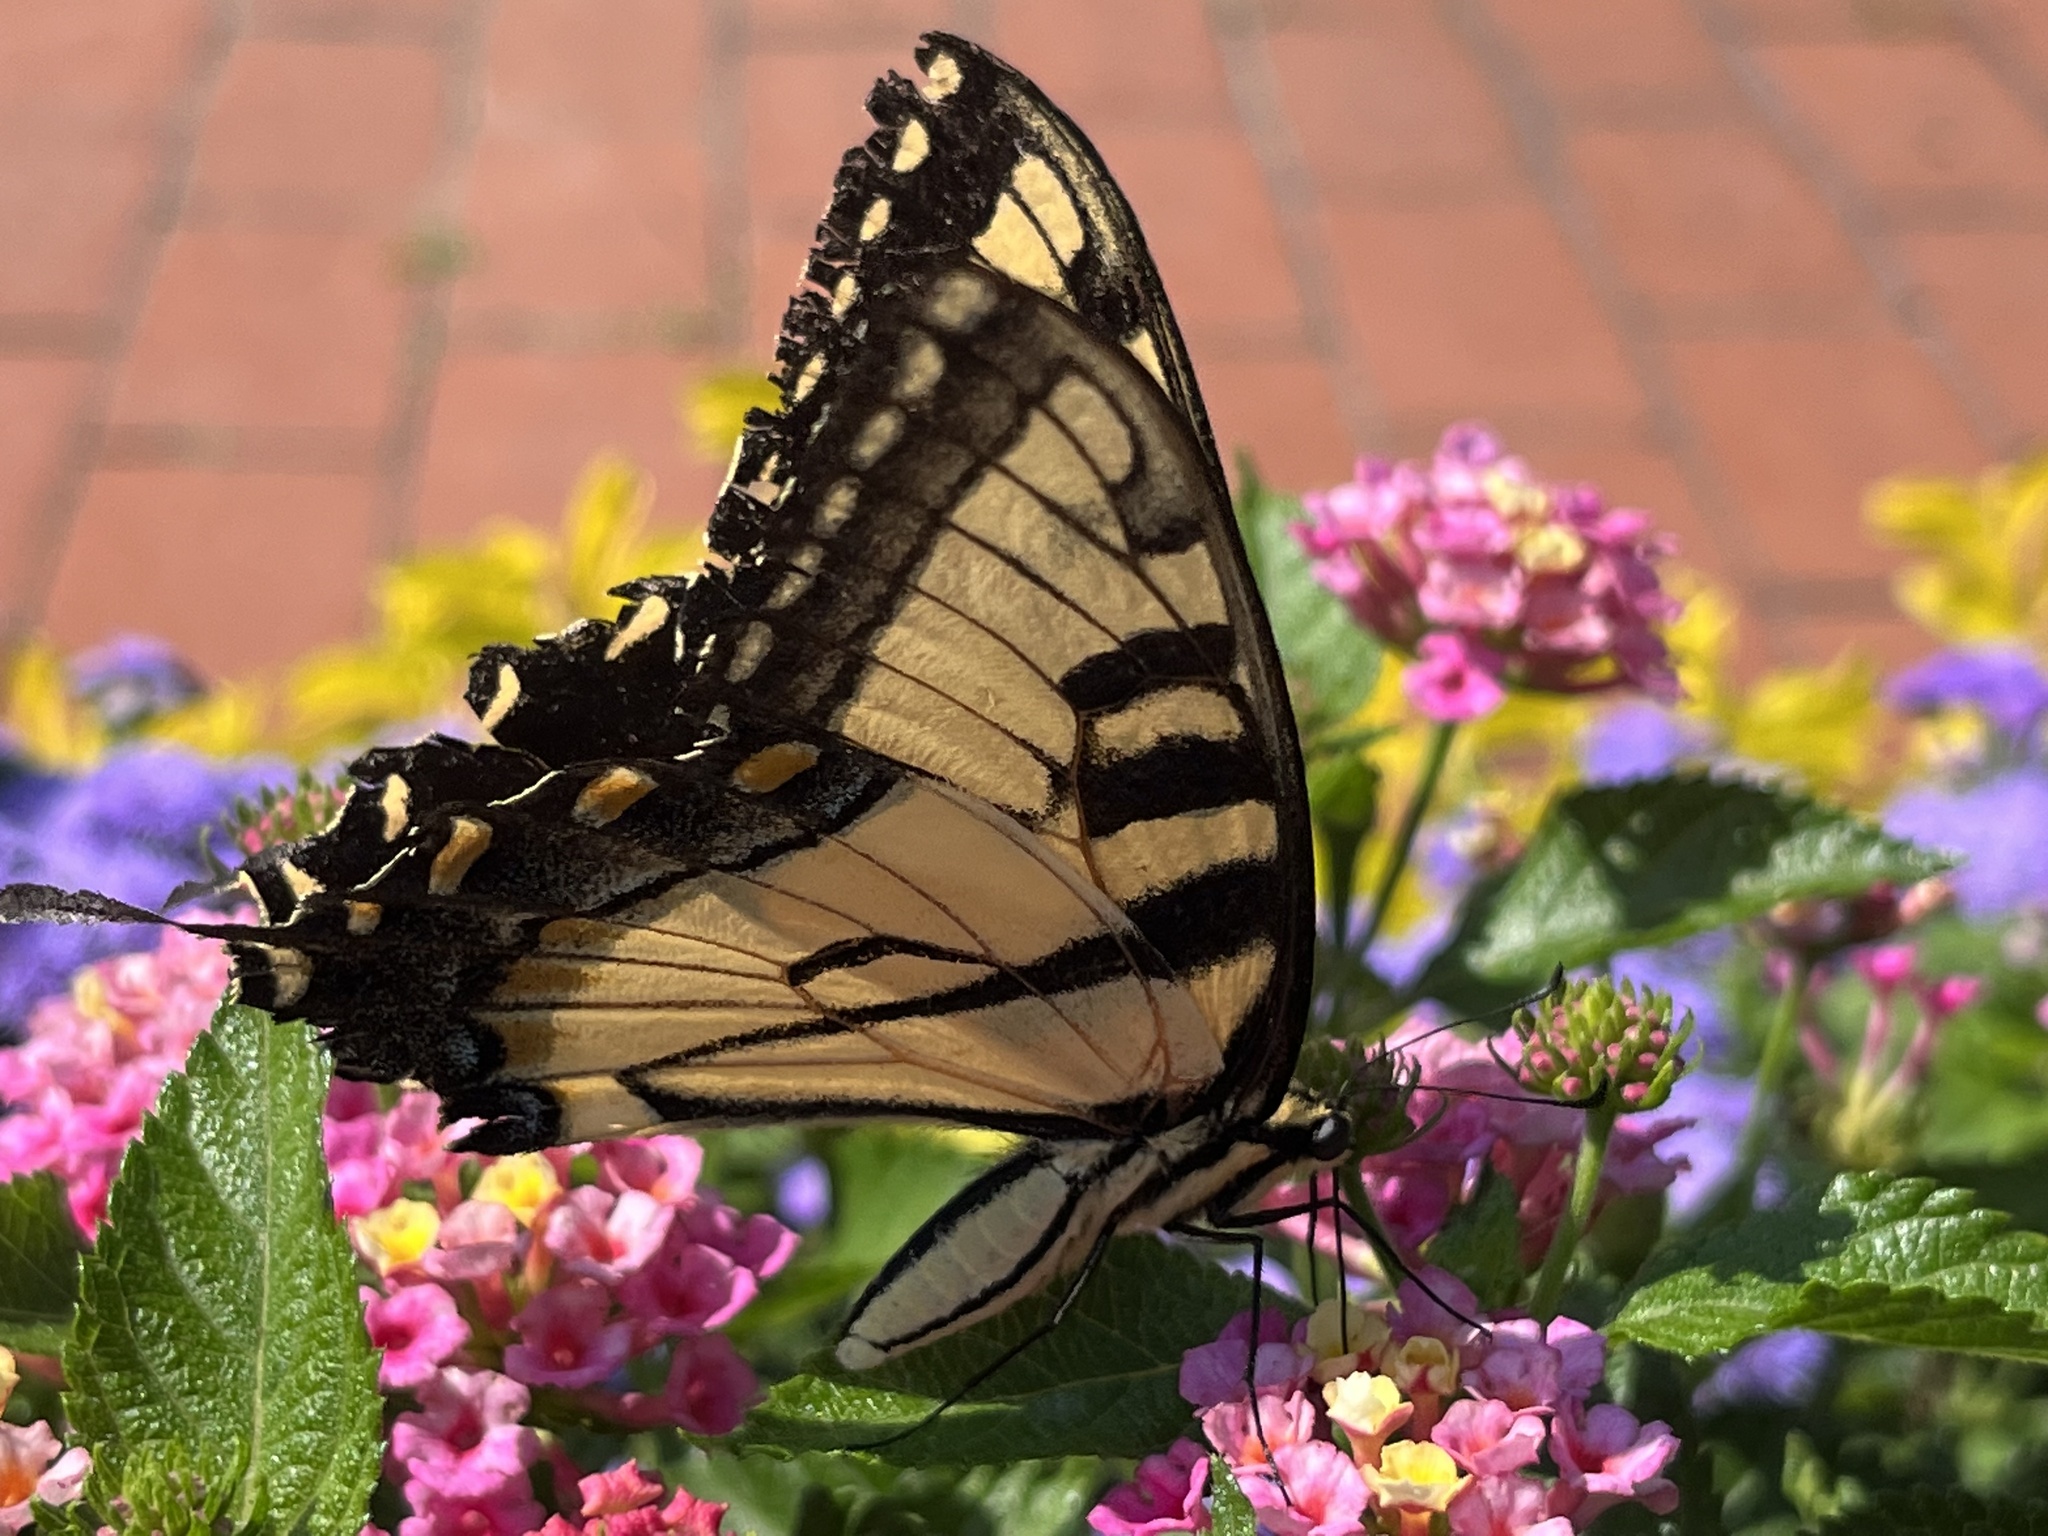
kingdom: Animalia
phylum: Arthropoda
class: Insecta
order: Lepidoptera
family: Papilionidae
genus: Papilio
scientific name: Papilio glaucus
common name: Tiger swallowtail
